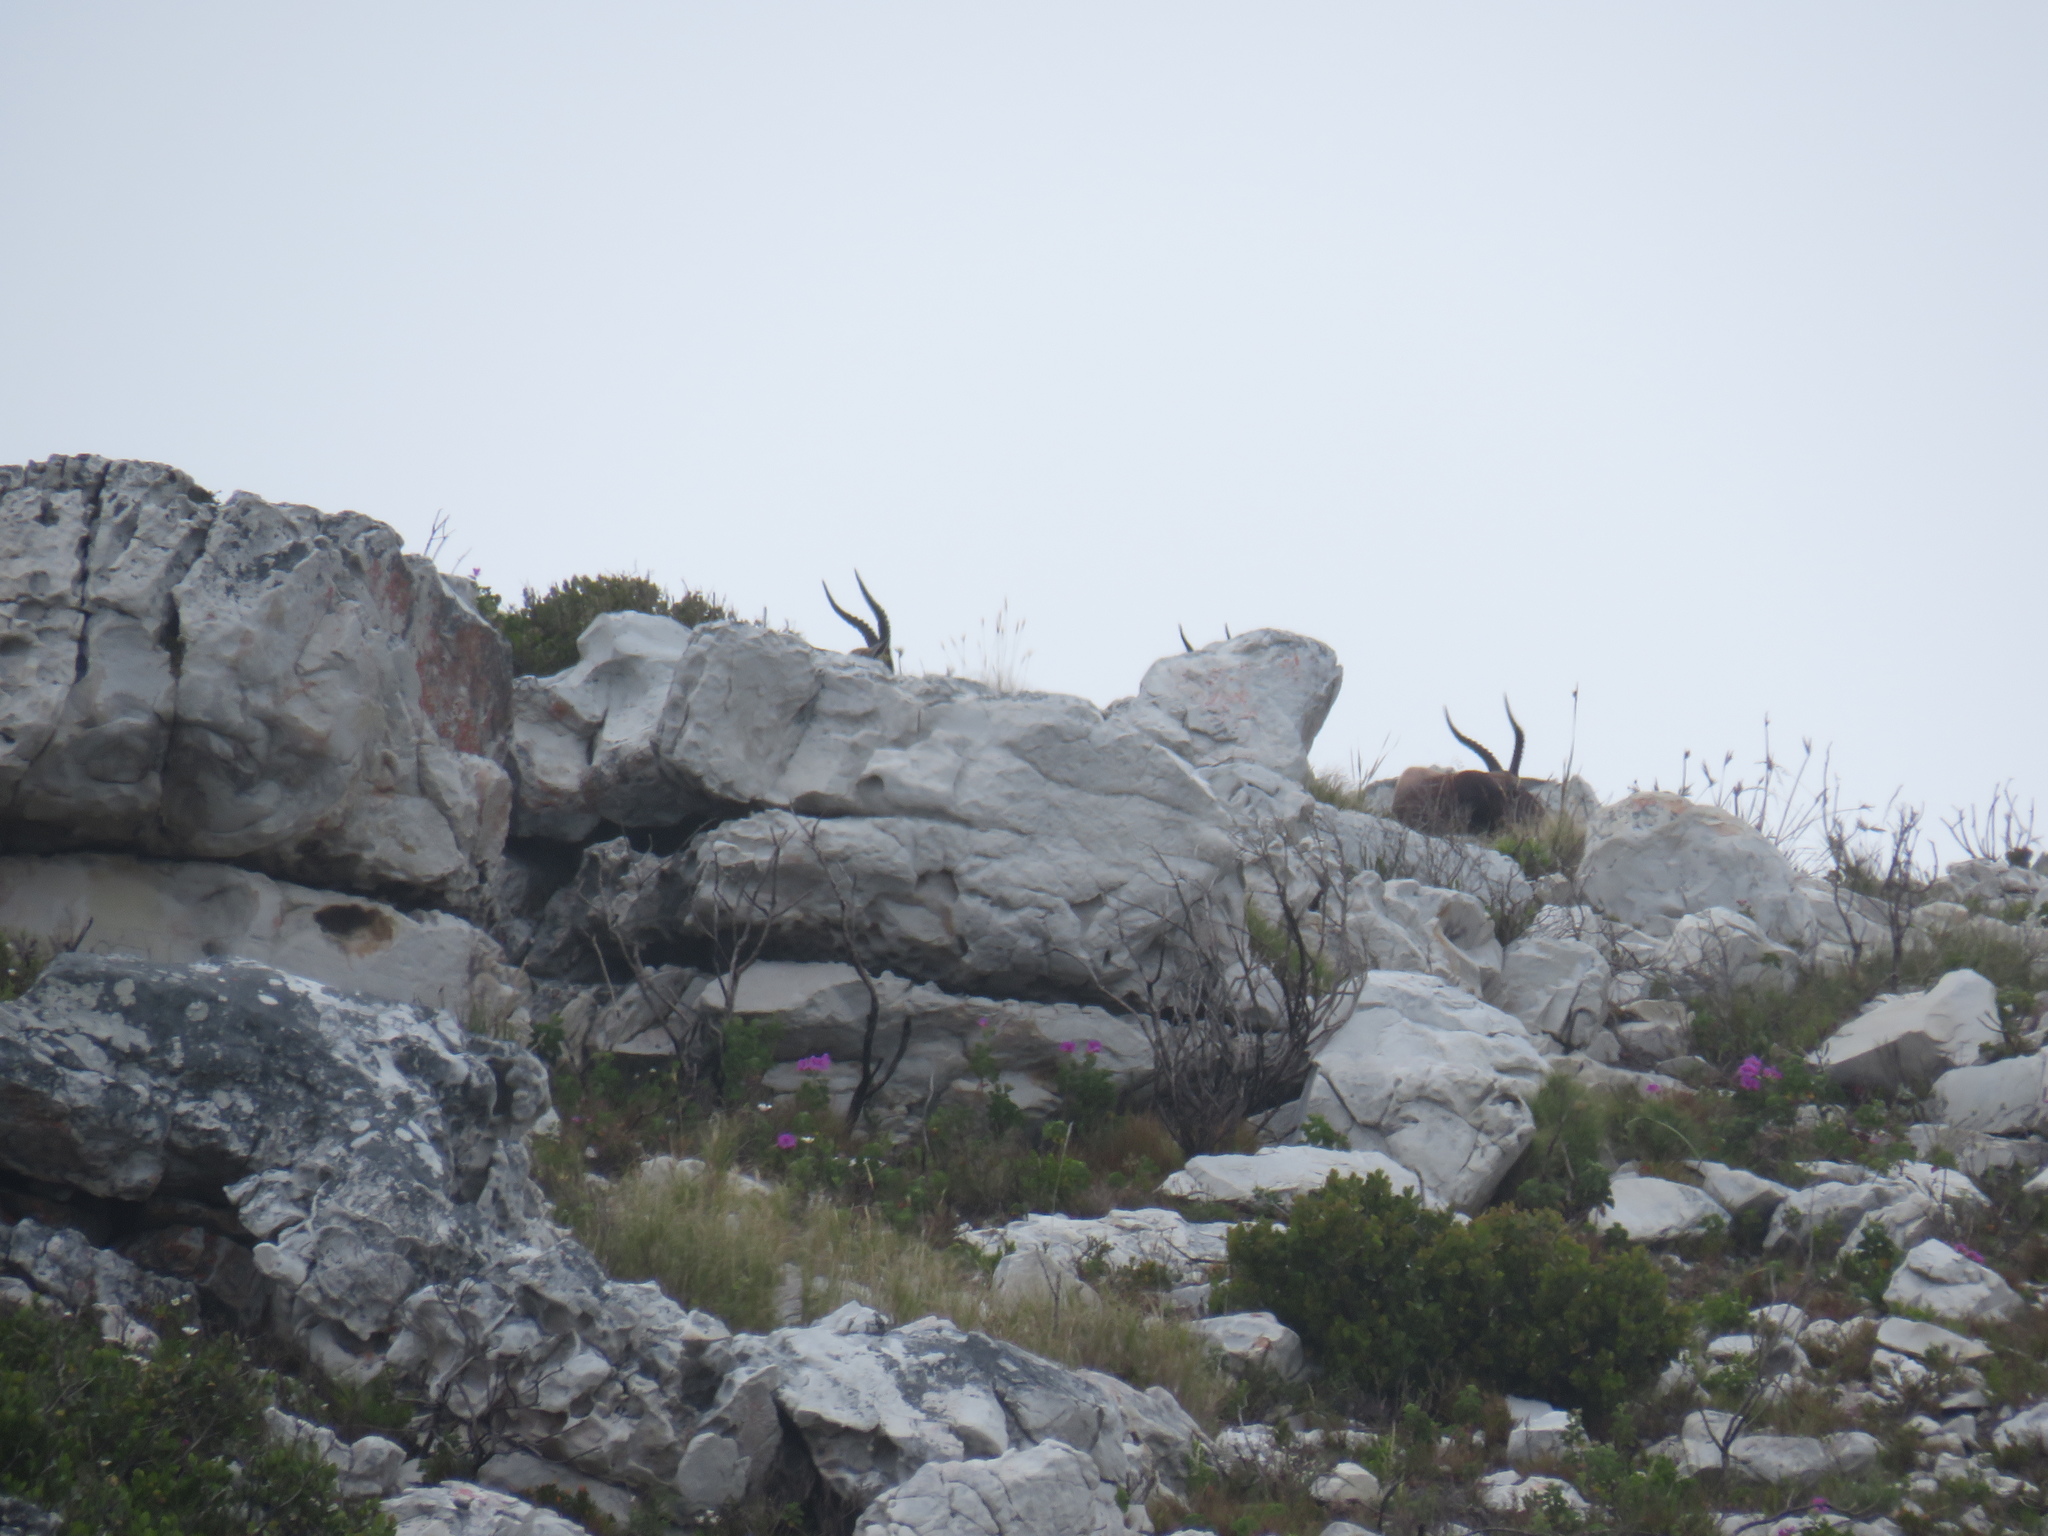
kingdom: Animalia
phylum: Chordata
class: Mammalia
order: Artiodactyla
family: Bovidae
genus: Damaliscus
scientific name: Damaliscus pygargus
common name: Bontebok
